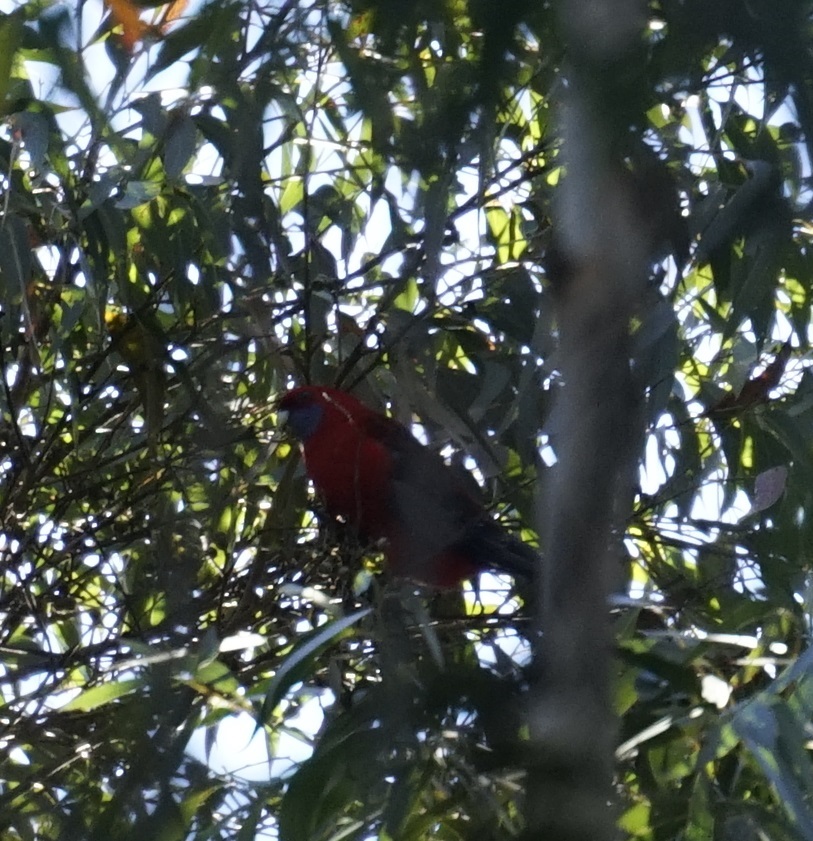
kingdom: Animalia
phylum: Chordata
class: Aves
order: Psittaciformes
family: Psittacidae
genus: Platycercus
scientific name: Platycercus elegans
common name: Crimson rosella
